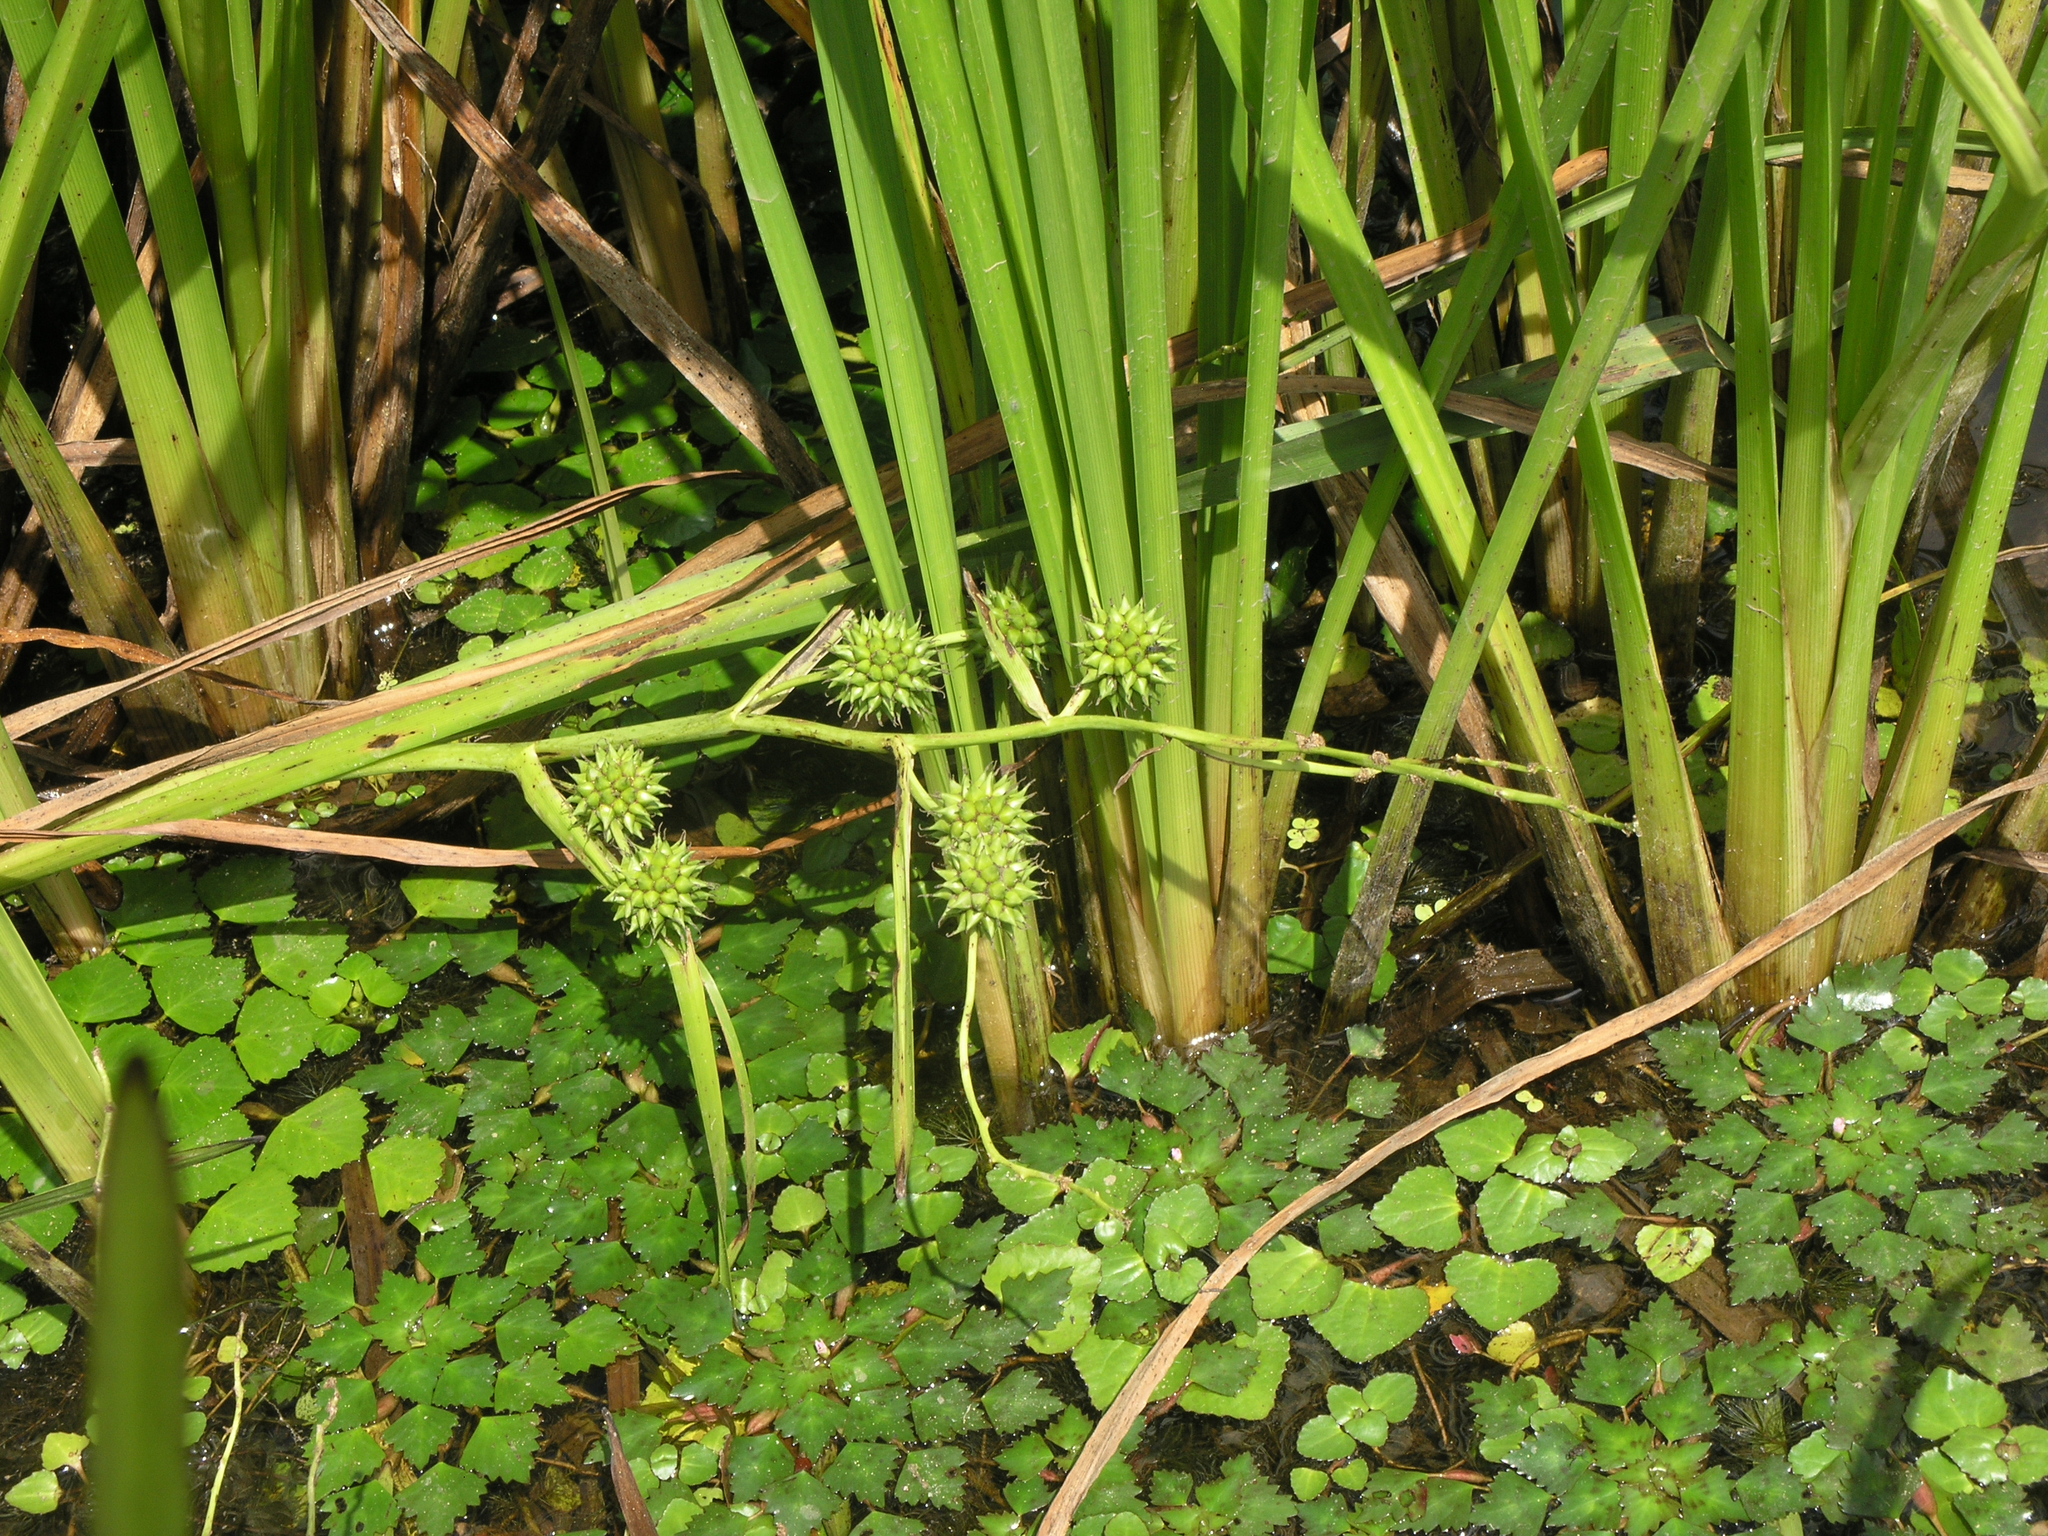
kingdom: Plantae
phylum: Tracheophyta
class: Liliopsida
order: Poales
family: Typhaceae
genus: Sparganium
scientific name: Sparganium eurycarpum
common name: Broad-fruited burreed
